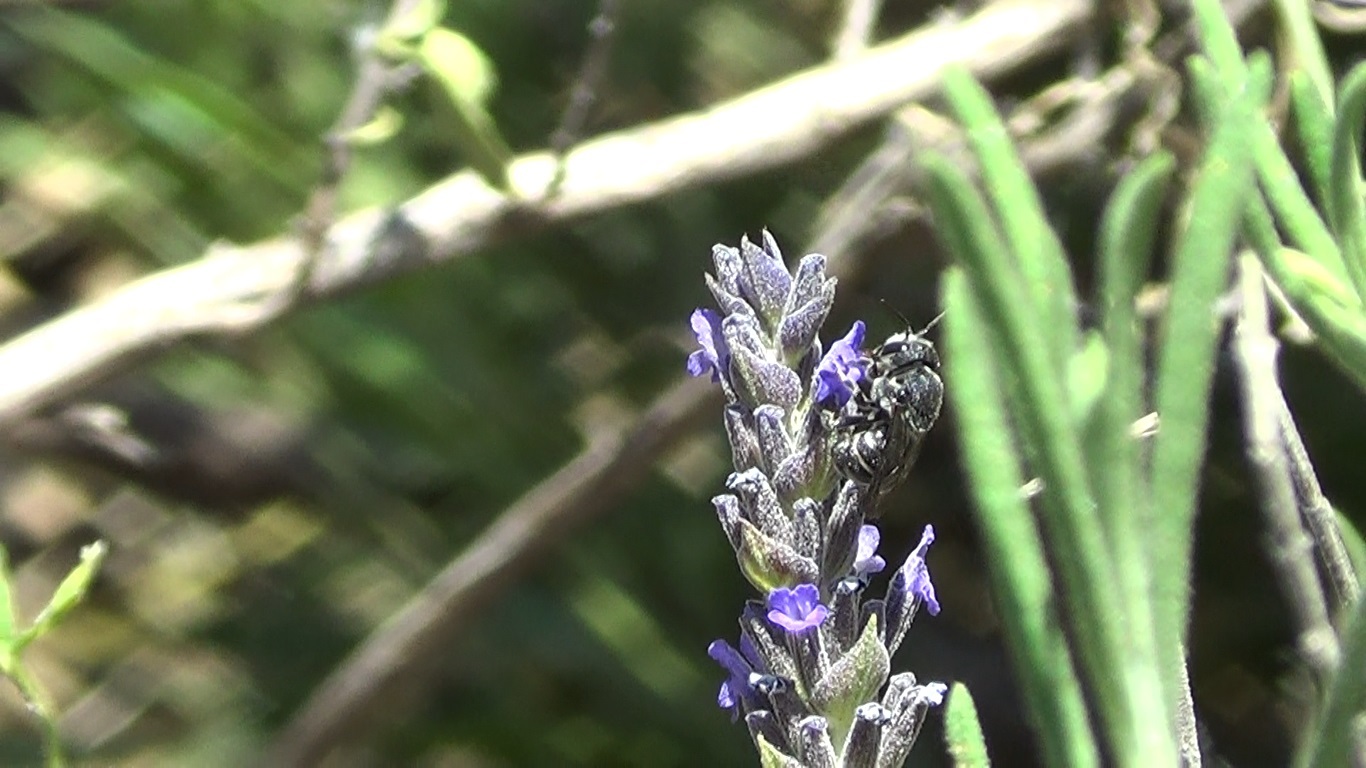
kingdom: Animalia
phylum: Arthropoda
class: Insecta
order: Hymenoptera
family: Megachilidae
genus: Stelis
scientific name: Stelis punctulatissima
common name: Banded dark bee
